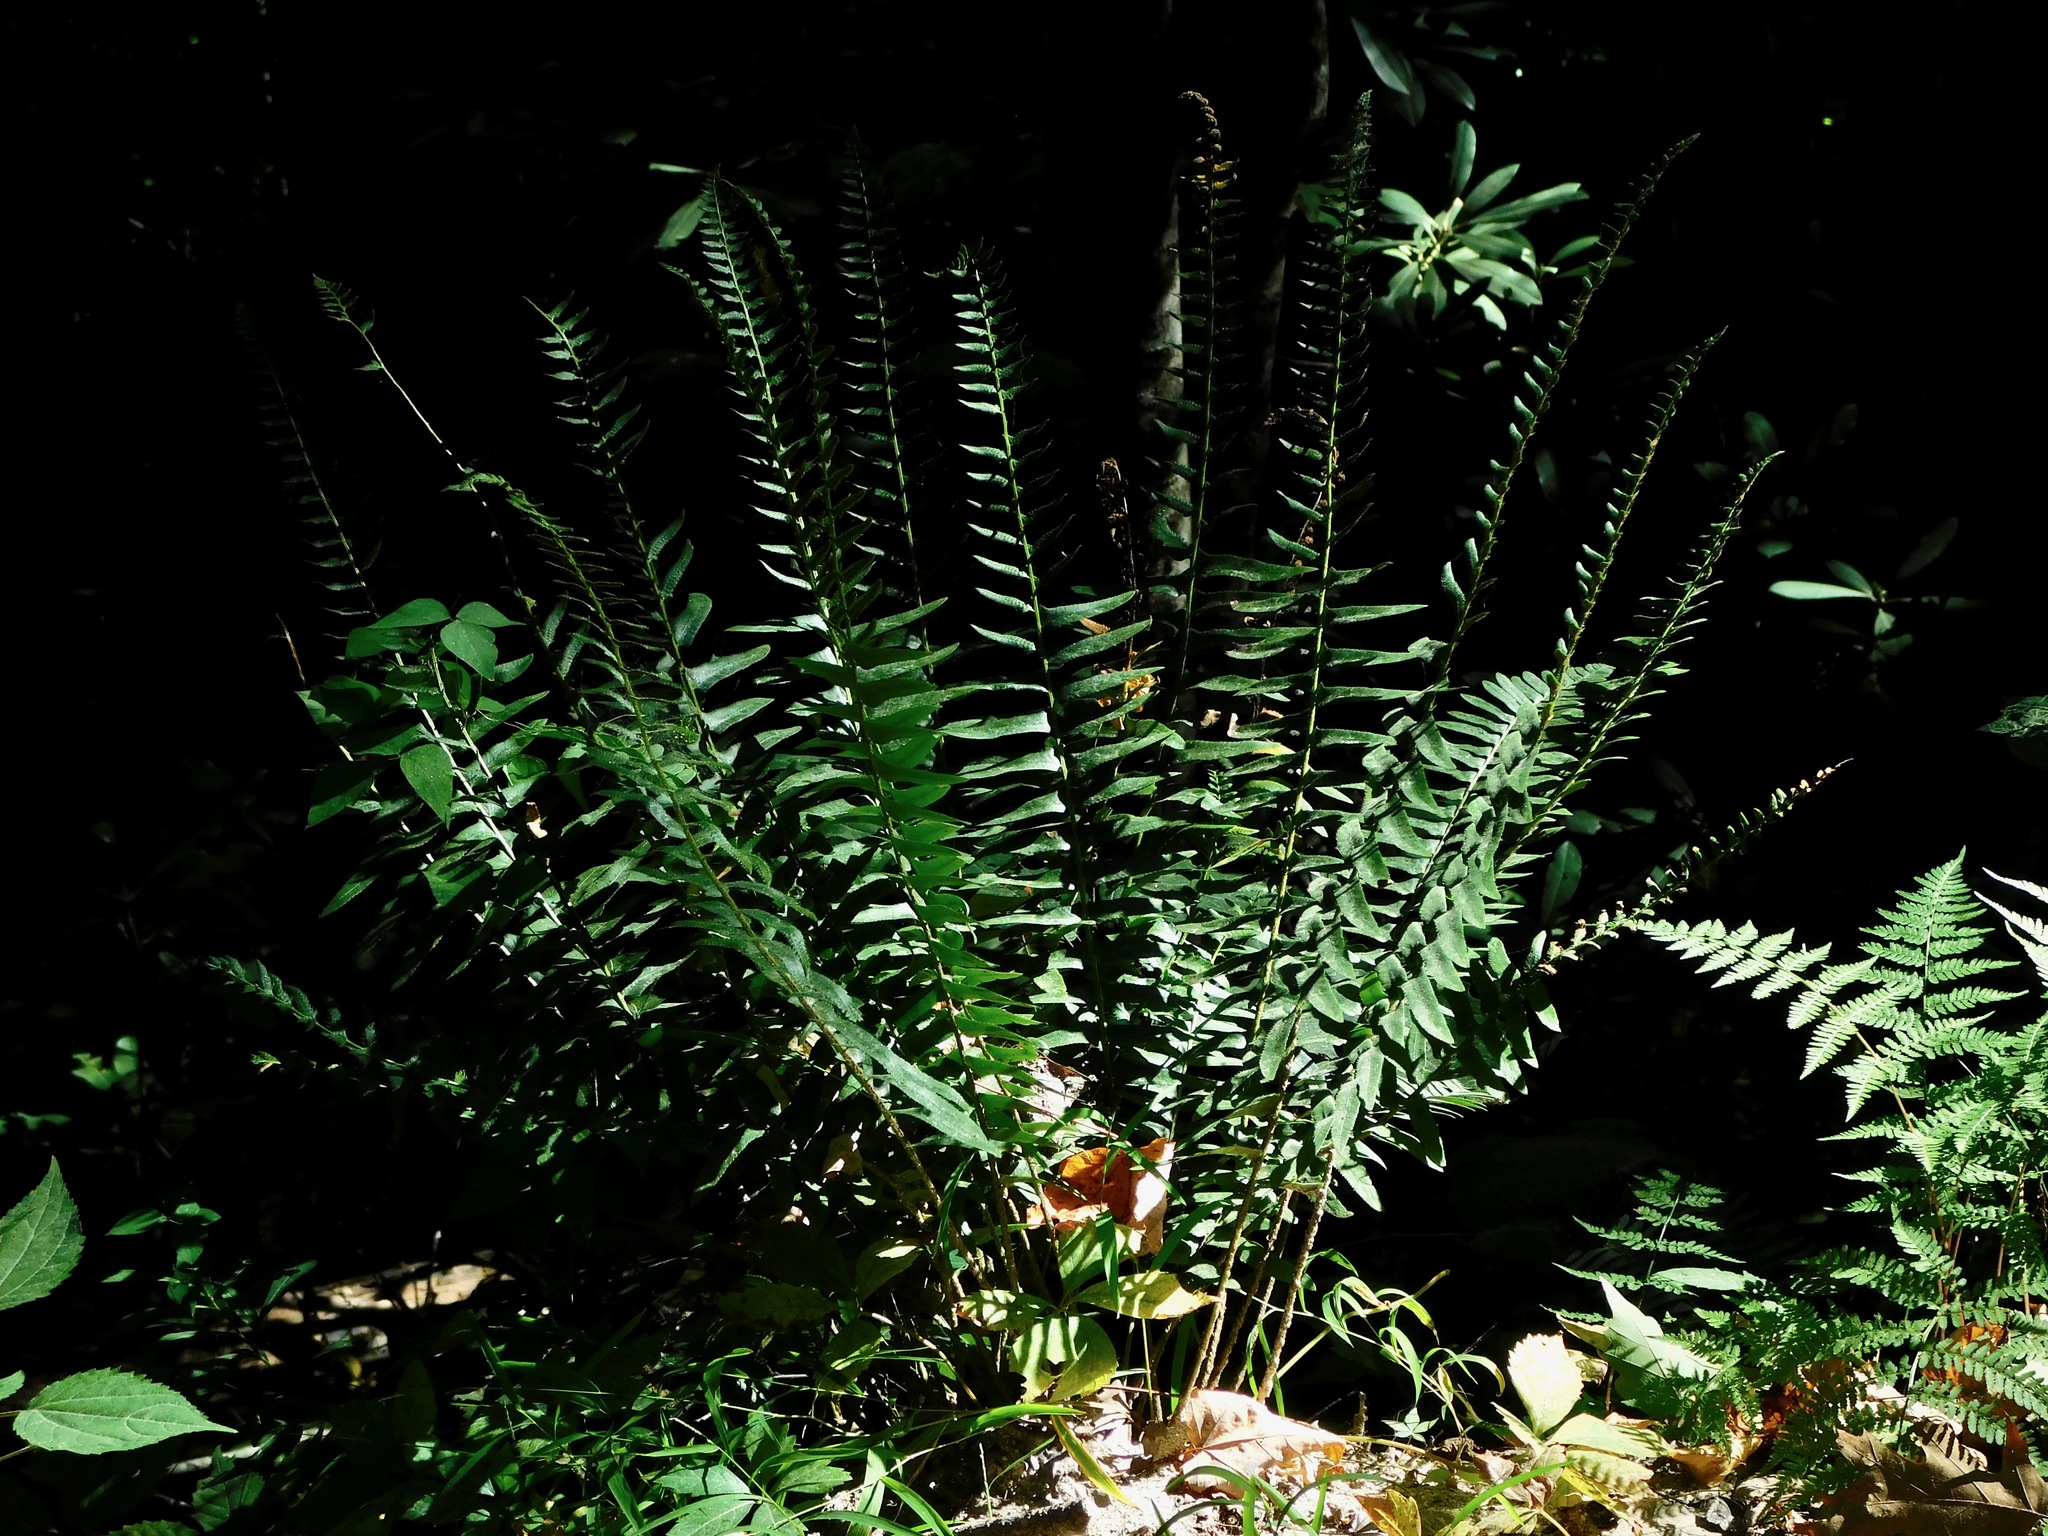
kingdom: Plantae
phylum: Tracheophyta
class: Polypodiopsida
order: Polypodiales
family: Dryopteridaceae
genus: Polystichum
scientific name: Polystichum acrostichoides
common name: Christmas fern
